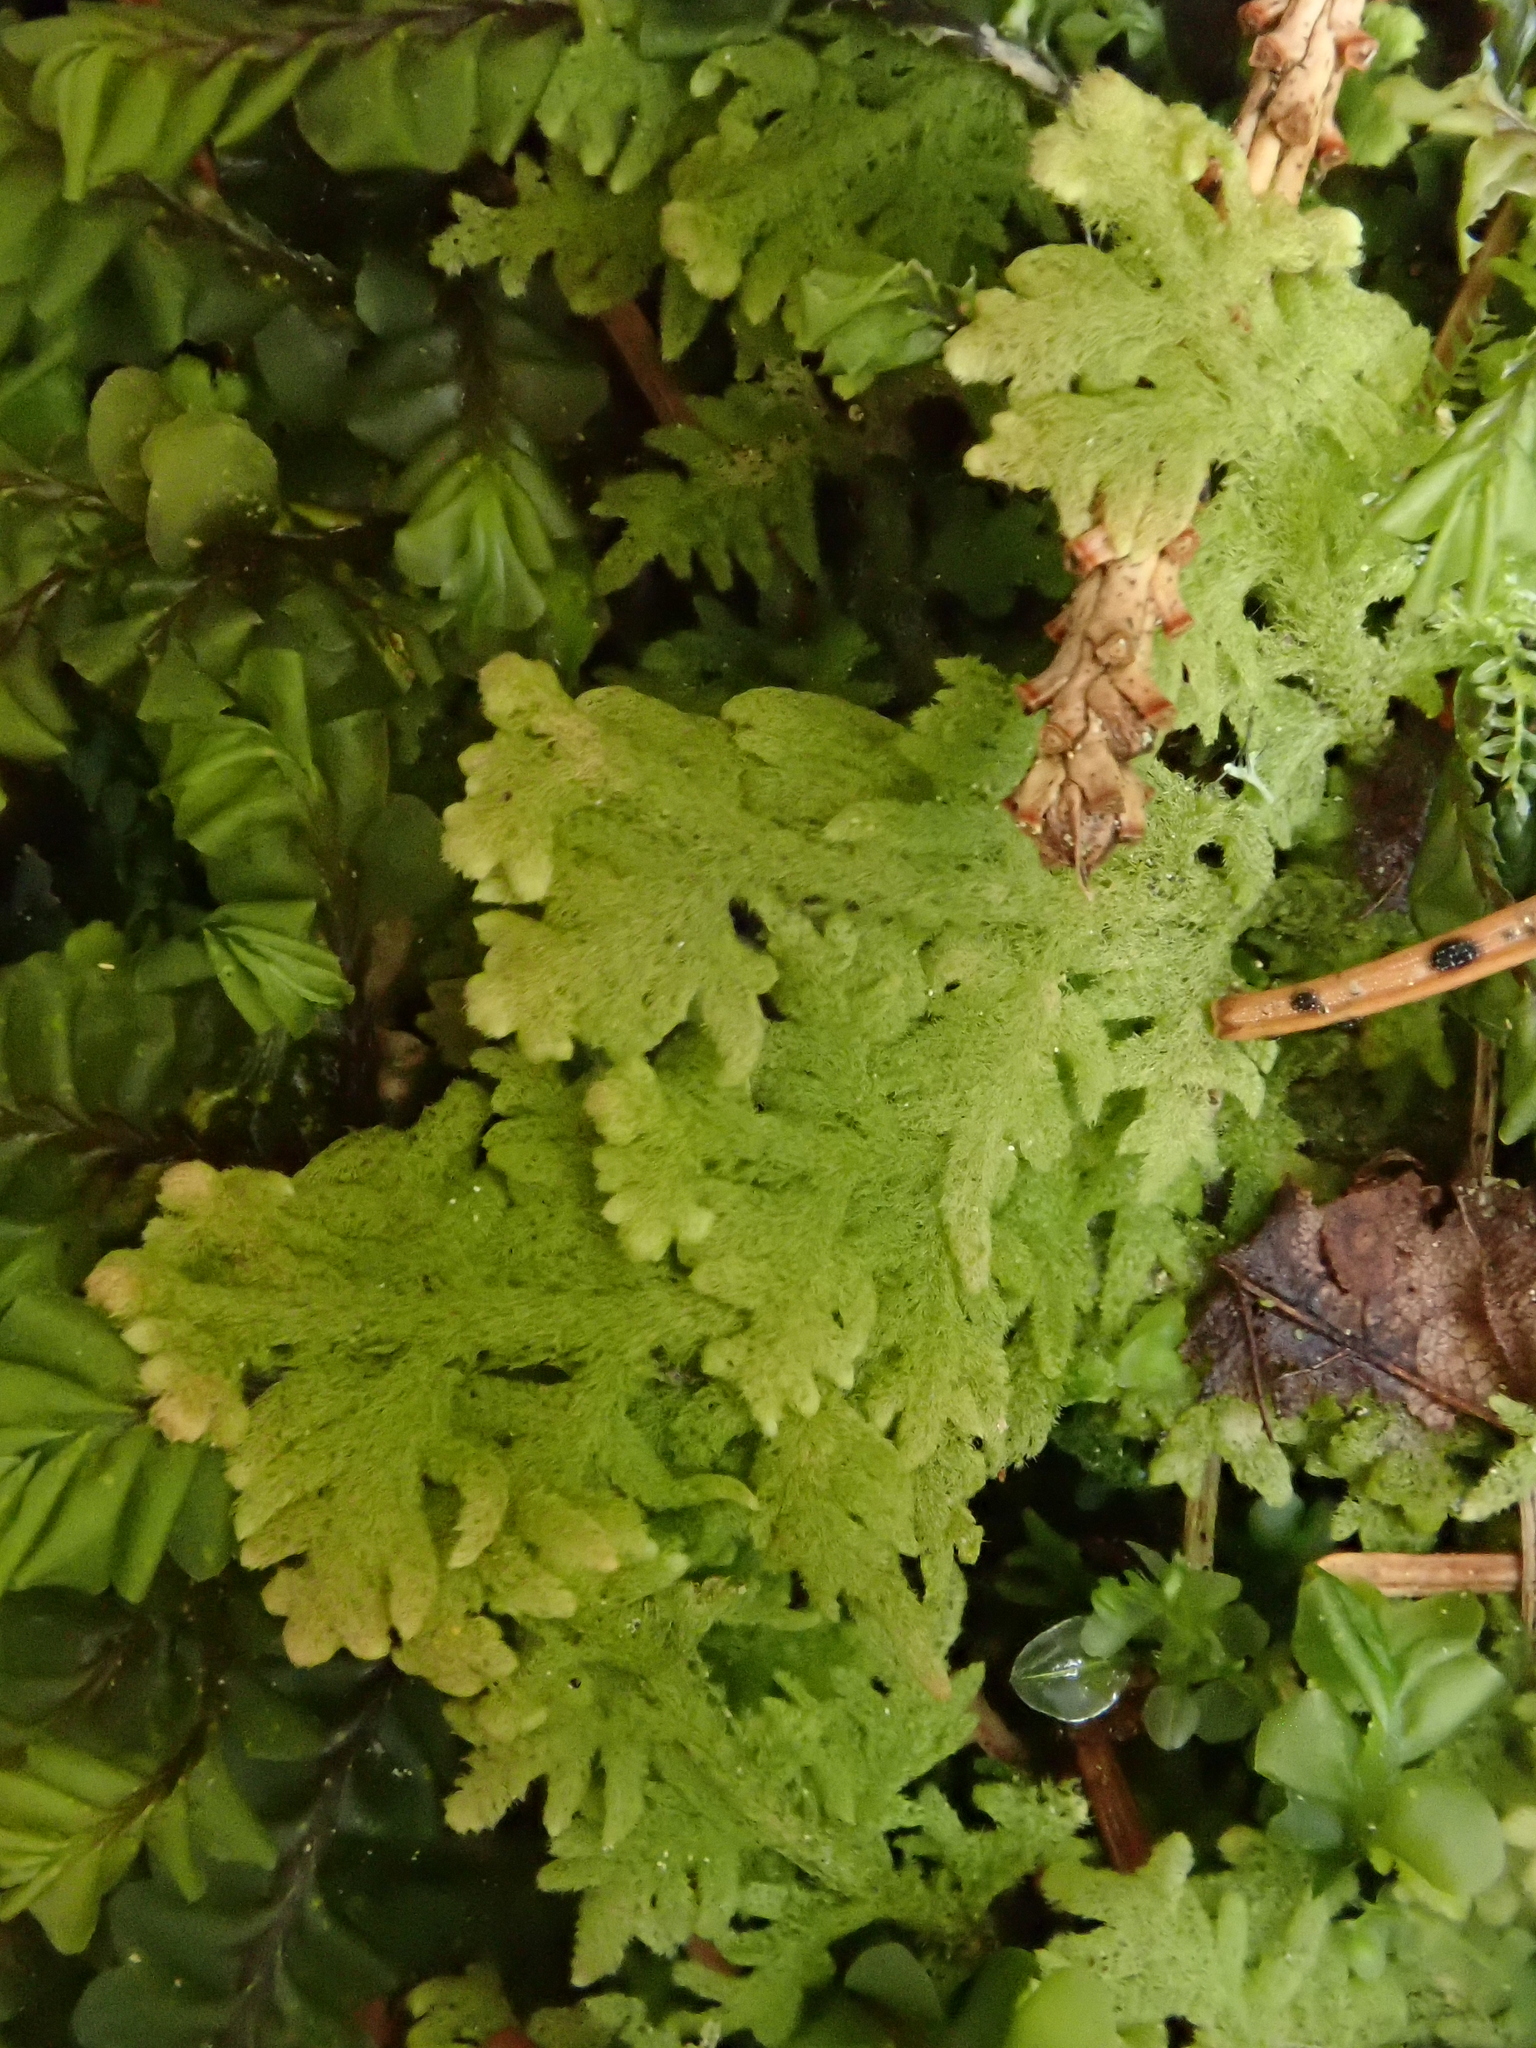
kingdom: Plantae
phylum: Marchantiophyta
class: Jungermanniopsida
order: Jungermanniales
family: Trichocoleaceae
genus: Trichocolea
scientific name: Trichocolea tomentella
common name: Woolly liverwort
